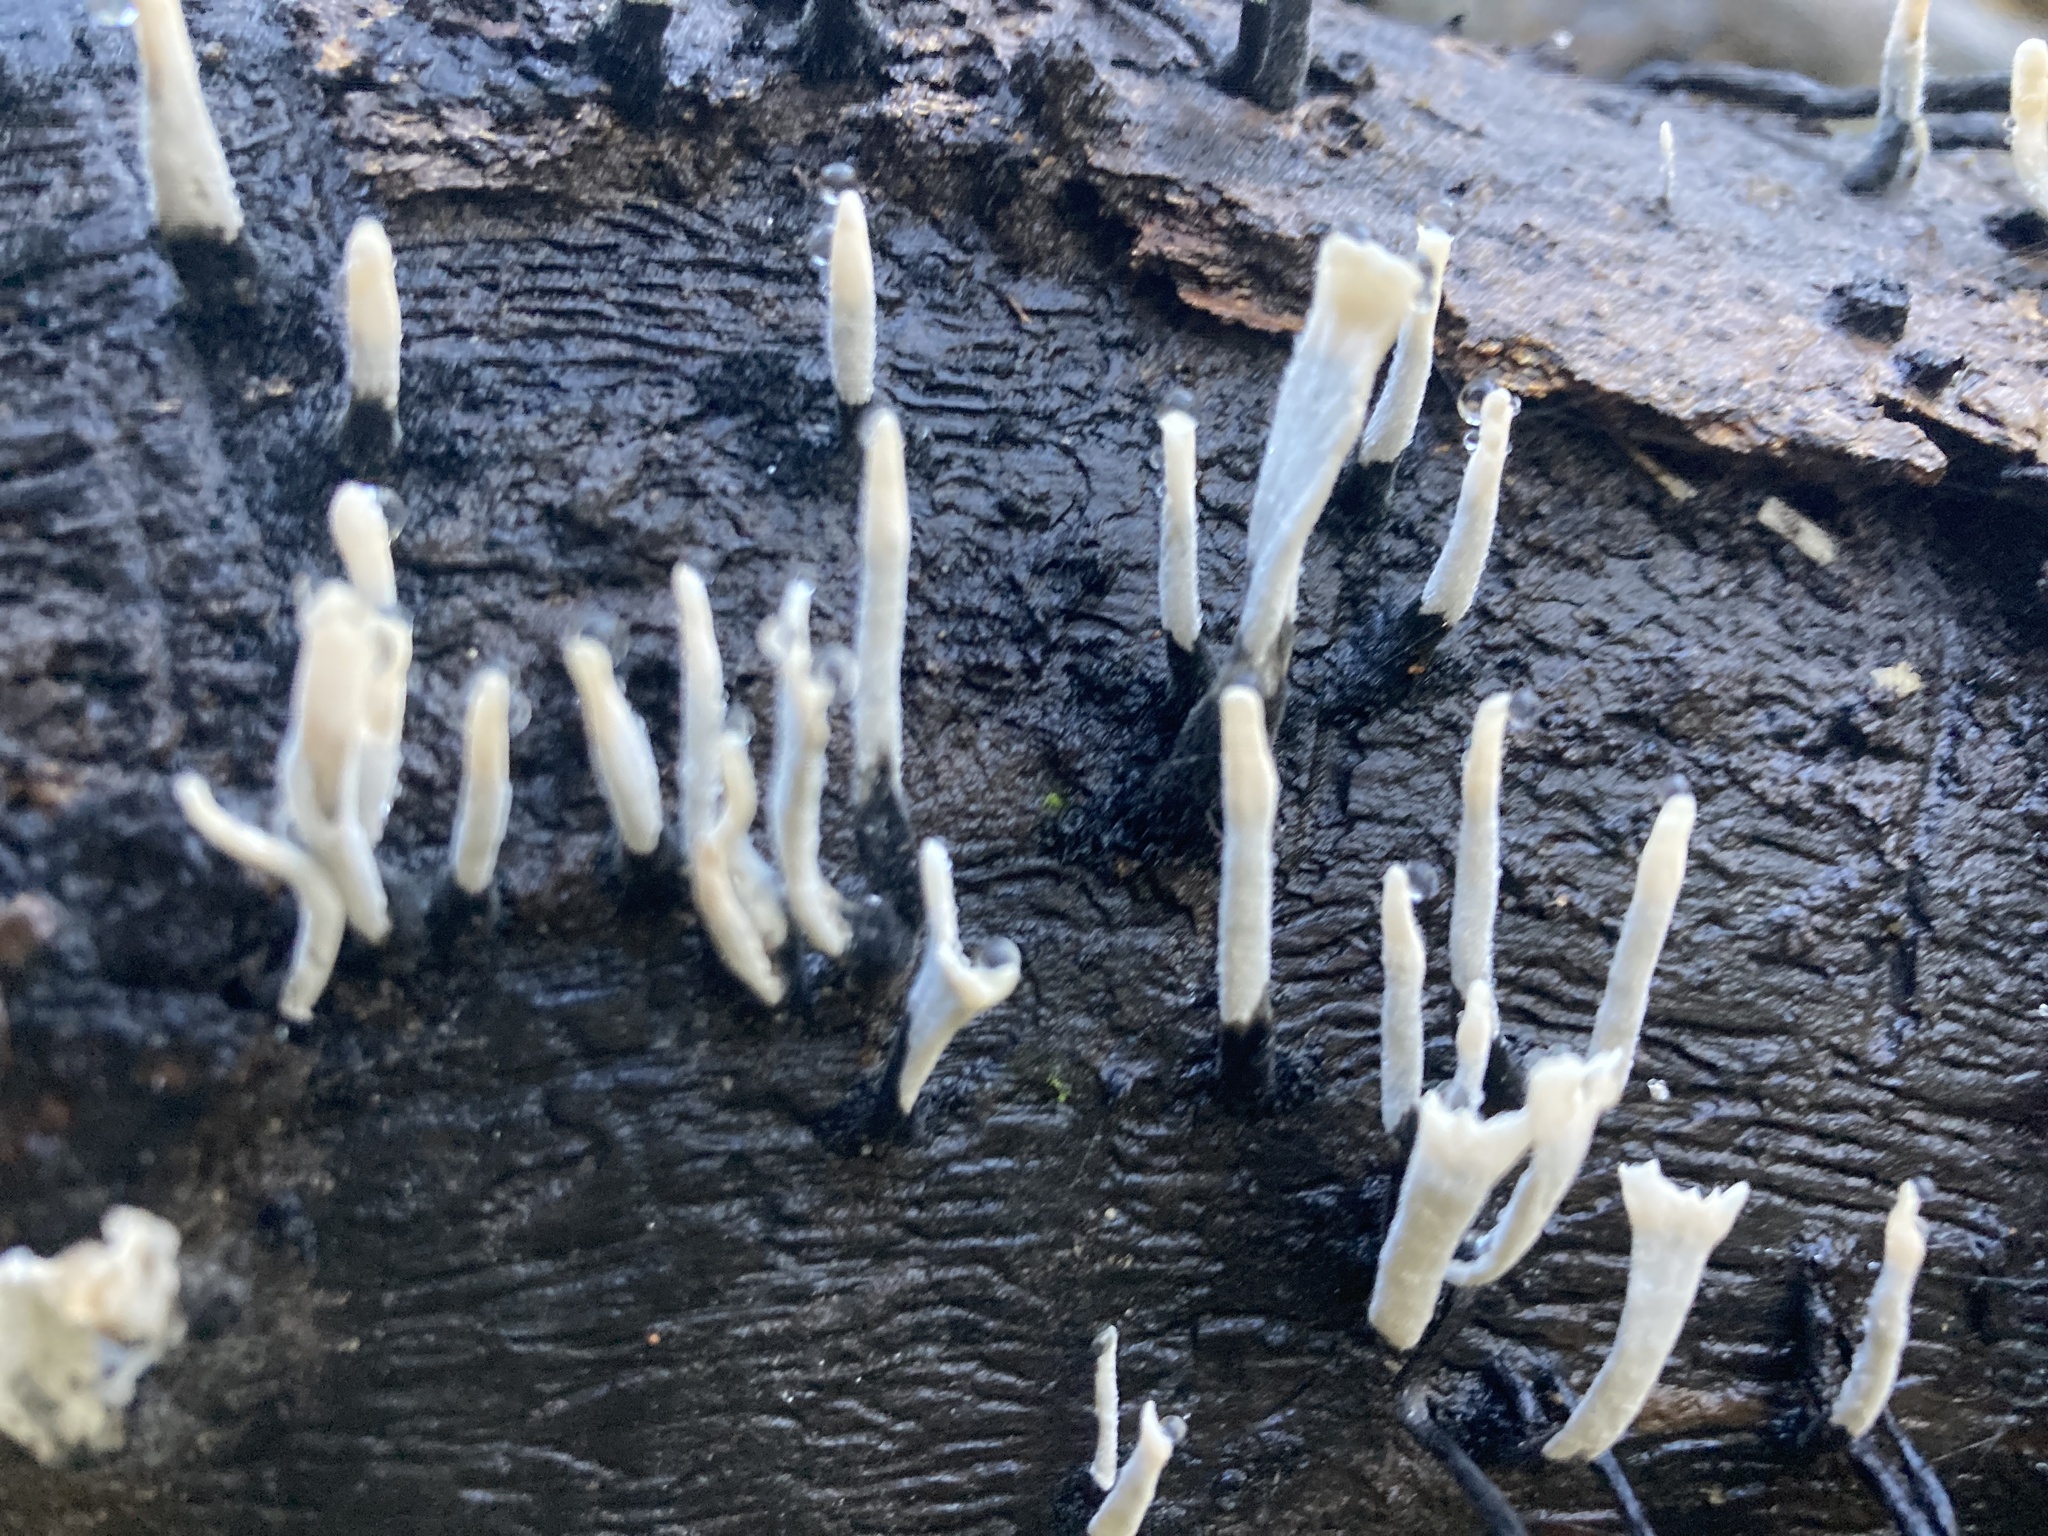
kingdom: Fungi
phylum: Ascomycota
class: Sordariomycetes
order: Xylariales
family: Xylariaceae
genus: Xylaria
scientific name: Xylaria hypoxylon
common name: Candle-snuff fungus
